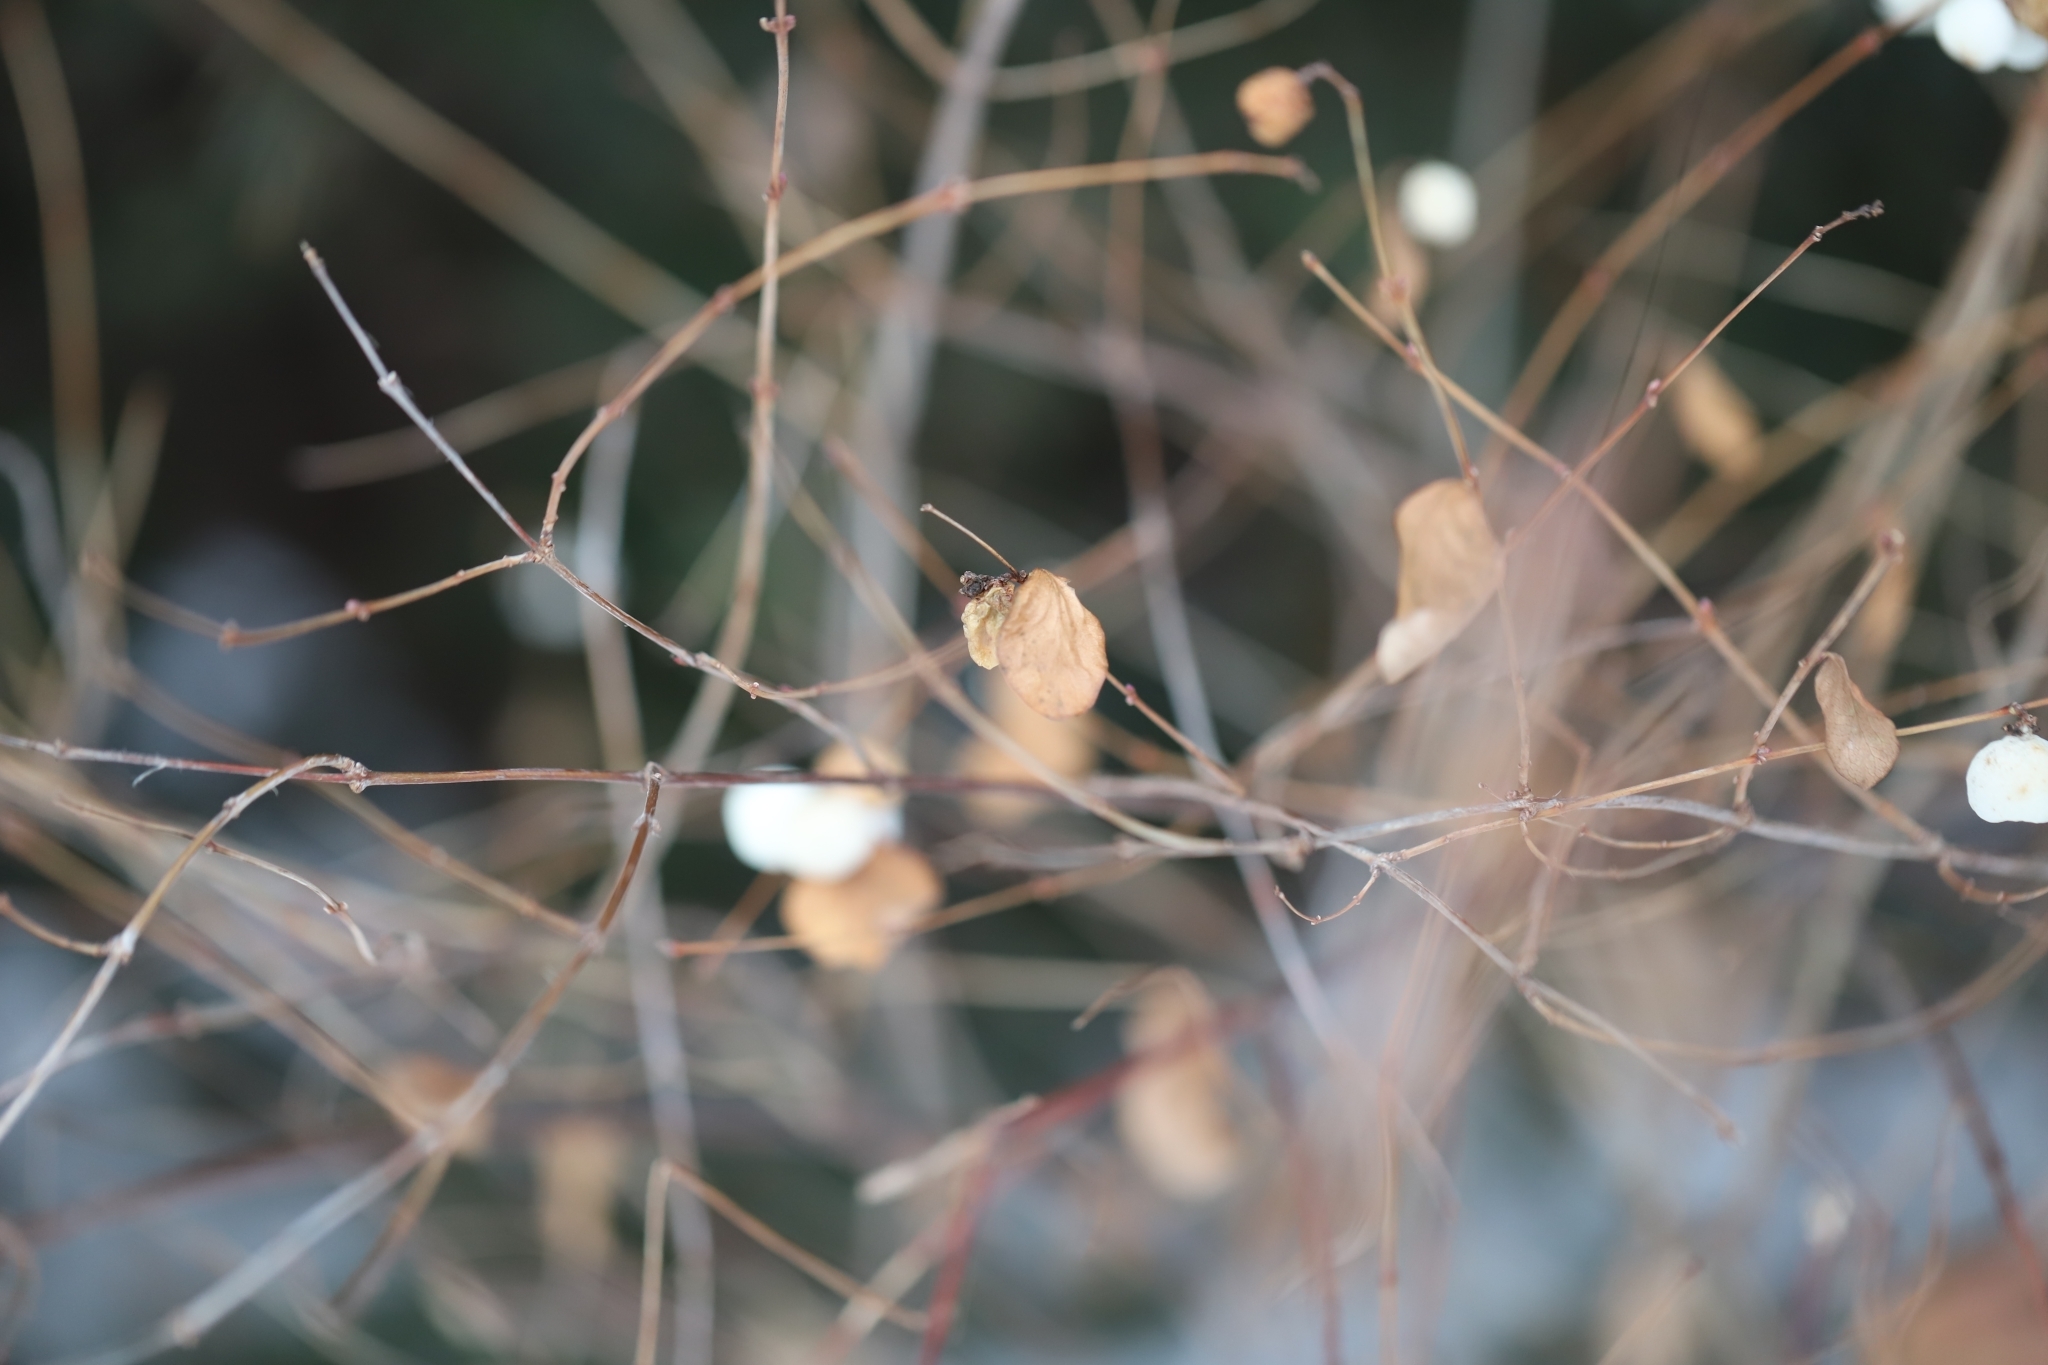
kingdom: Plantae
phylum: Tracheophyta
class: Magnoliopsida
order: Dipsacales
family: Caprifoliaceae
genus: Symphoricarpos
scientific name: Symphoricarpos albus
